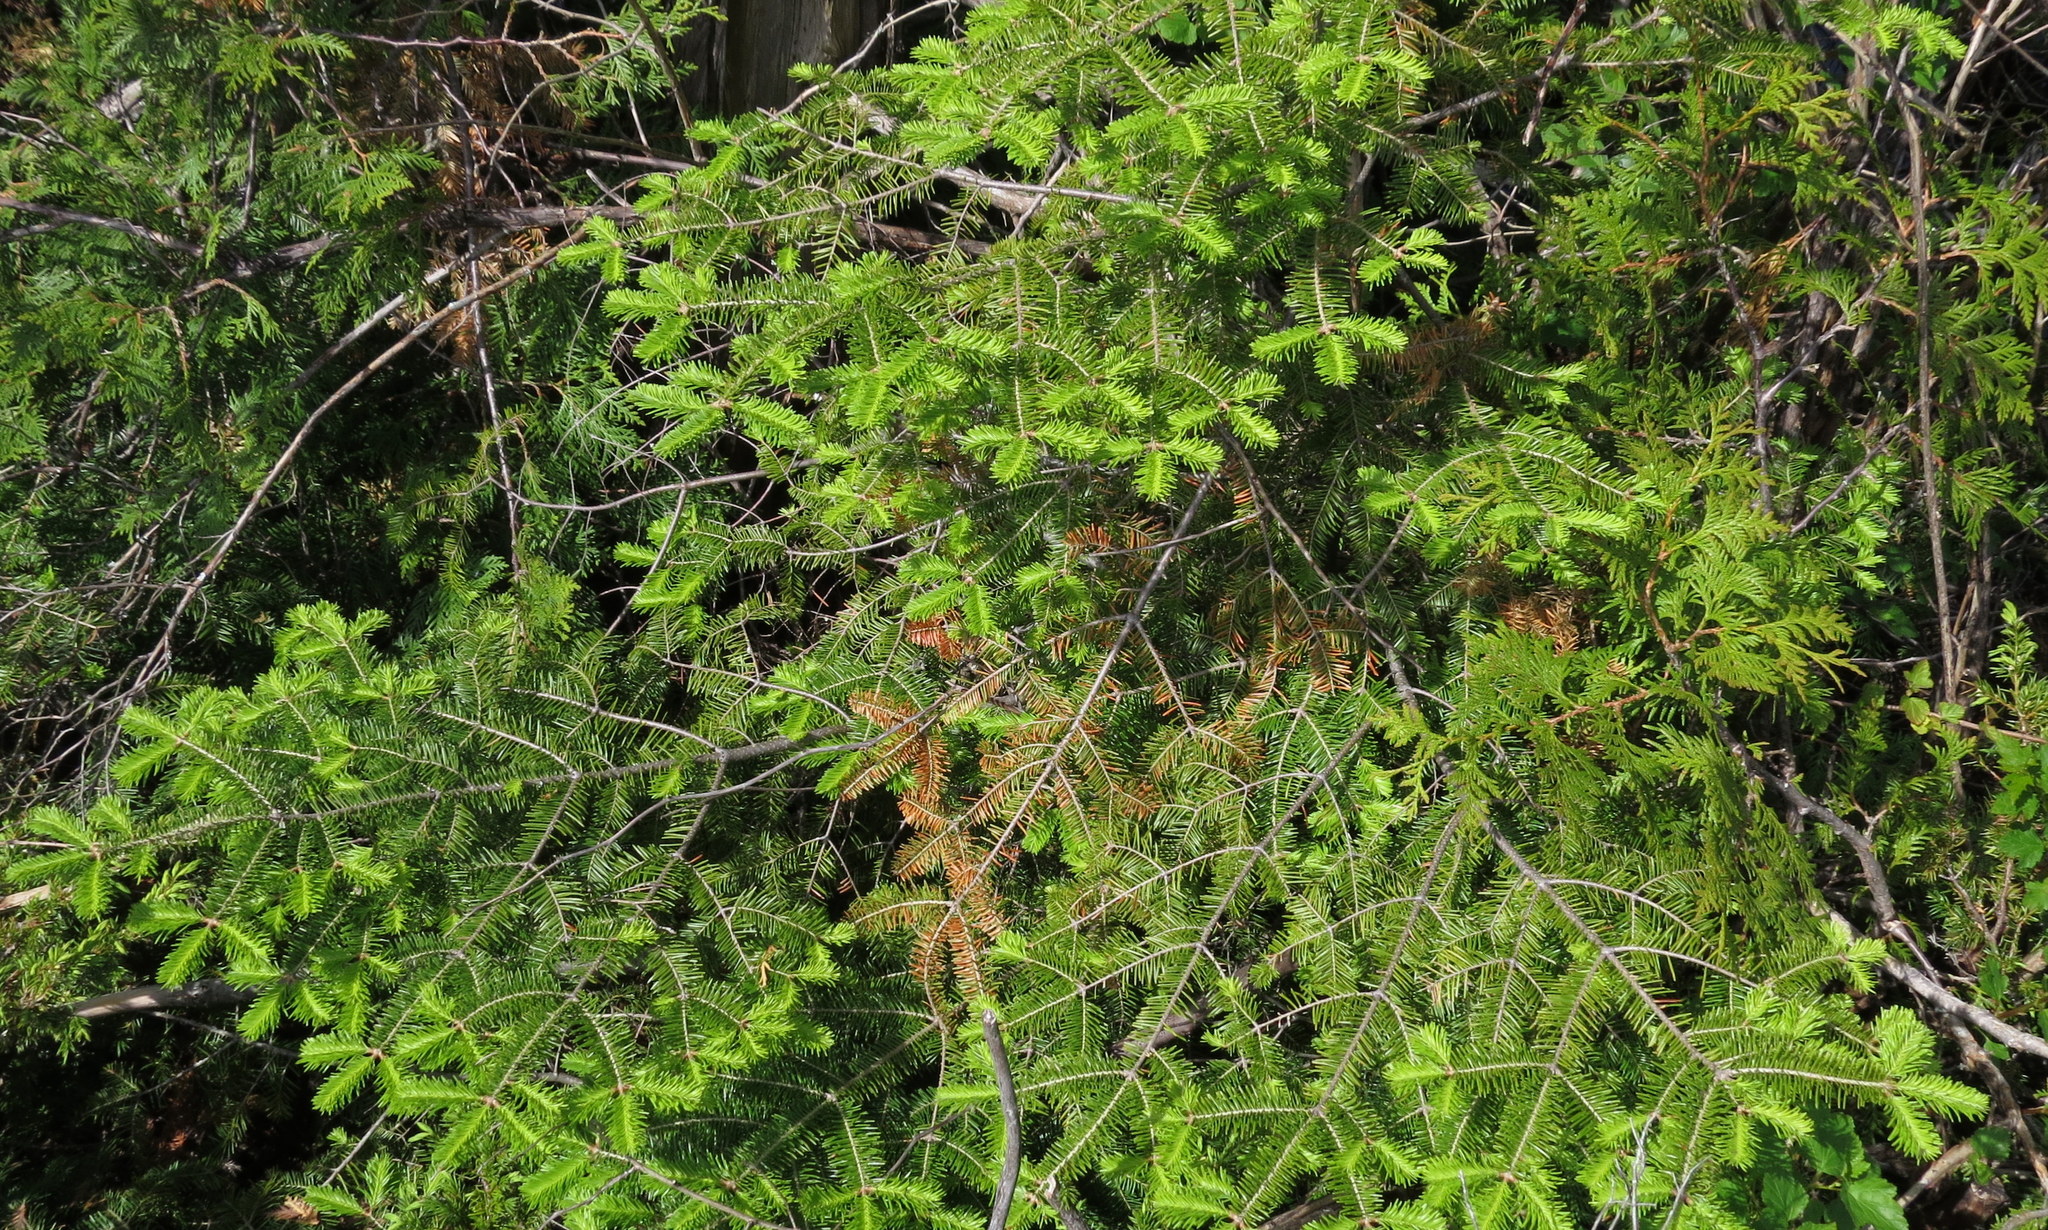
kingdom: Plantae
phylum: Tracheophyta
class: Pinopsida
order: Pinales
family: Pinaceae
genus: Abies
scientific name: Abies balsamea
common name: Balsam fir
